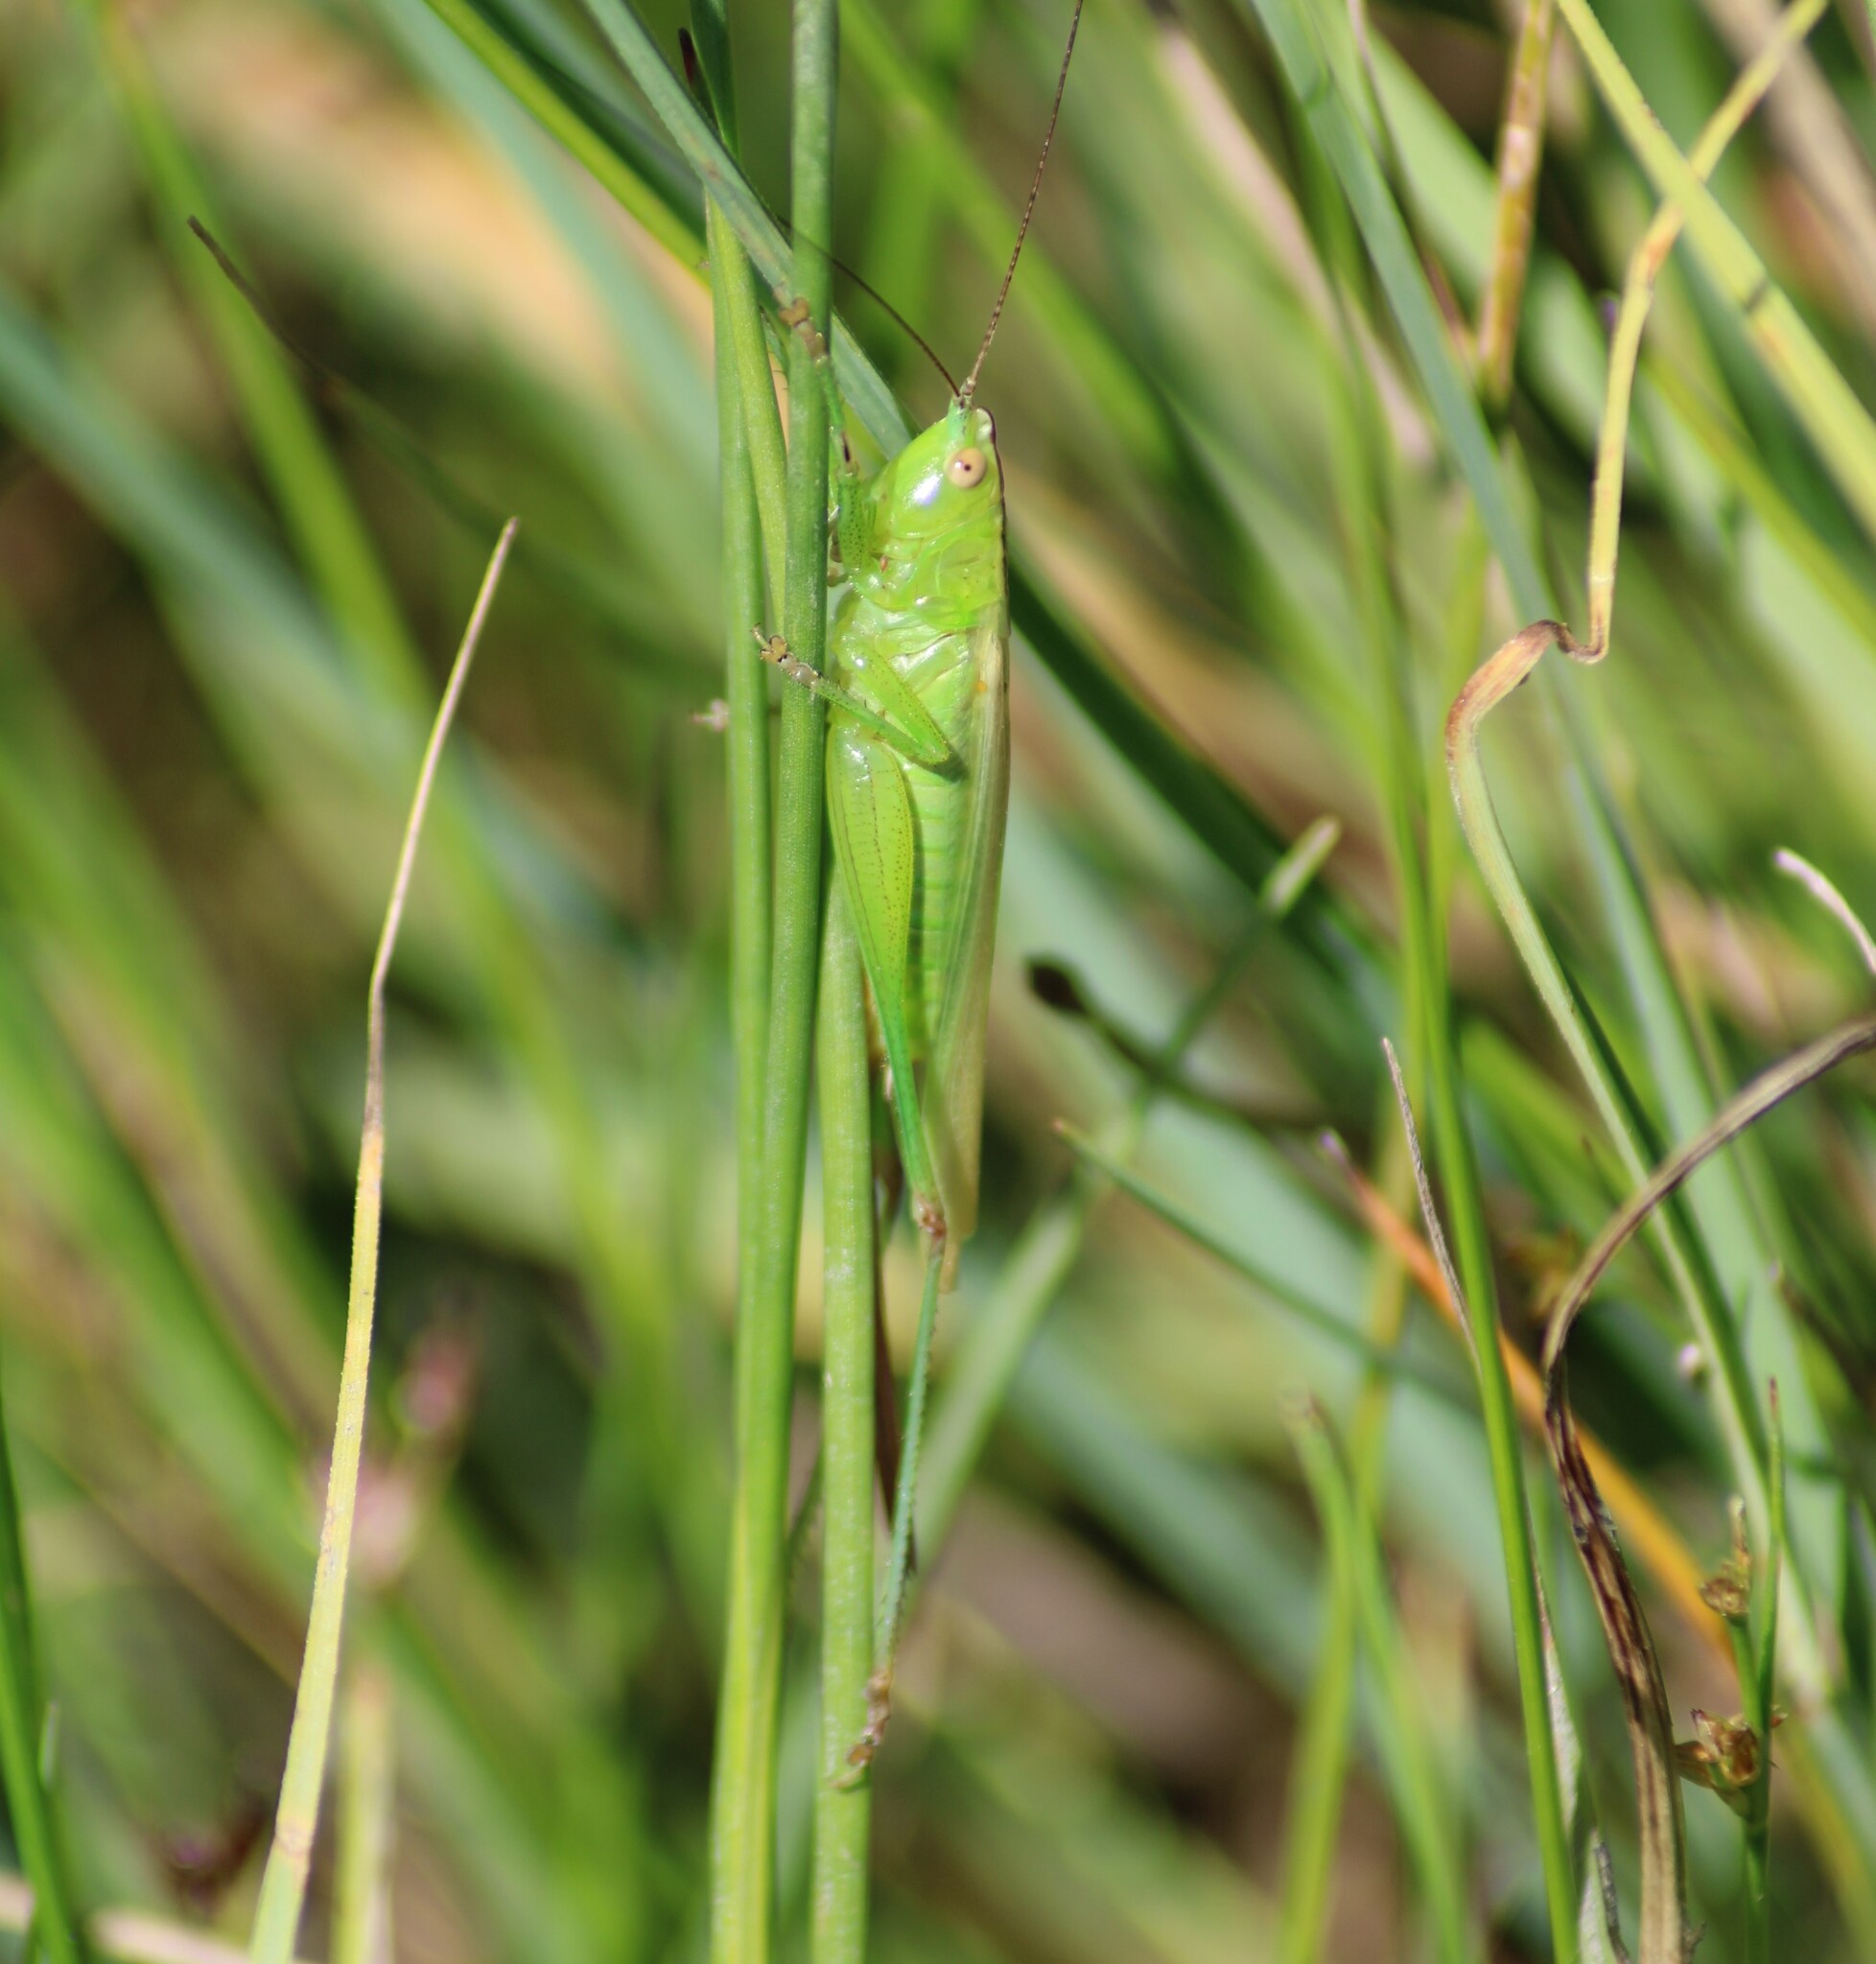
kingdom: Animalia
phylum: Arthropoda
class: Insecta
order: Orthoptera
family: Tettigoniidae
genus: Conocephalus
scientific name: Conocephalus fuscus
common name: Long-winged conehead
